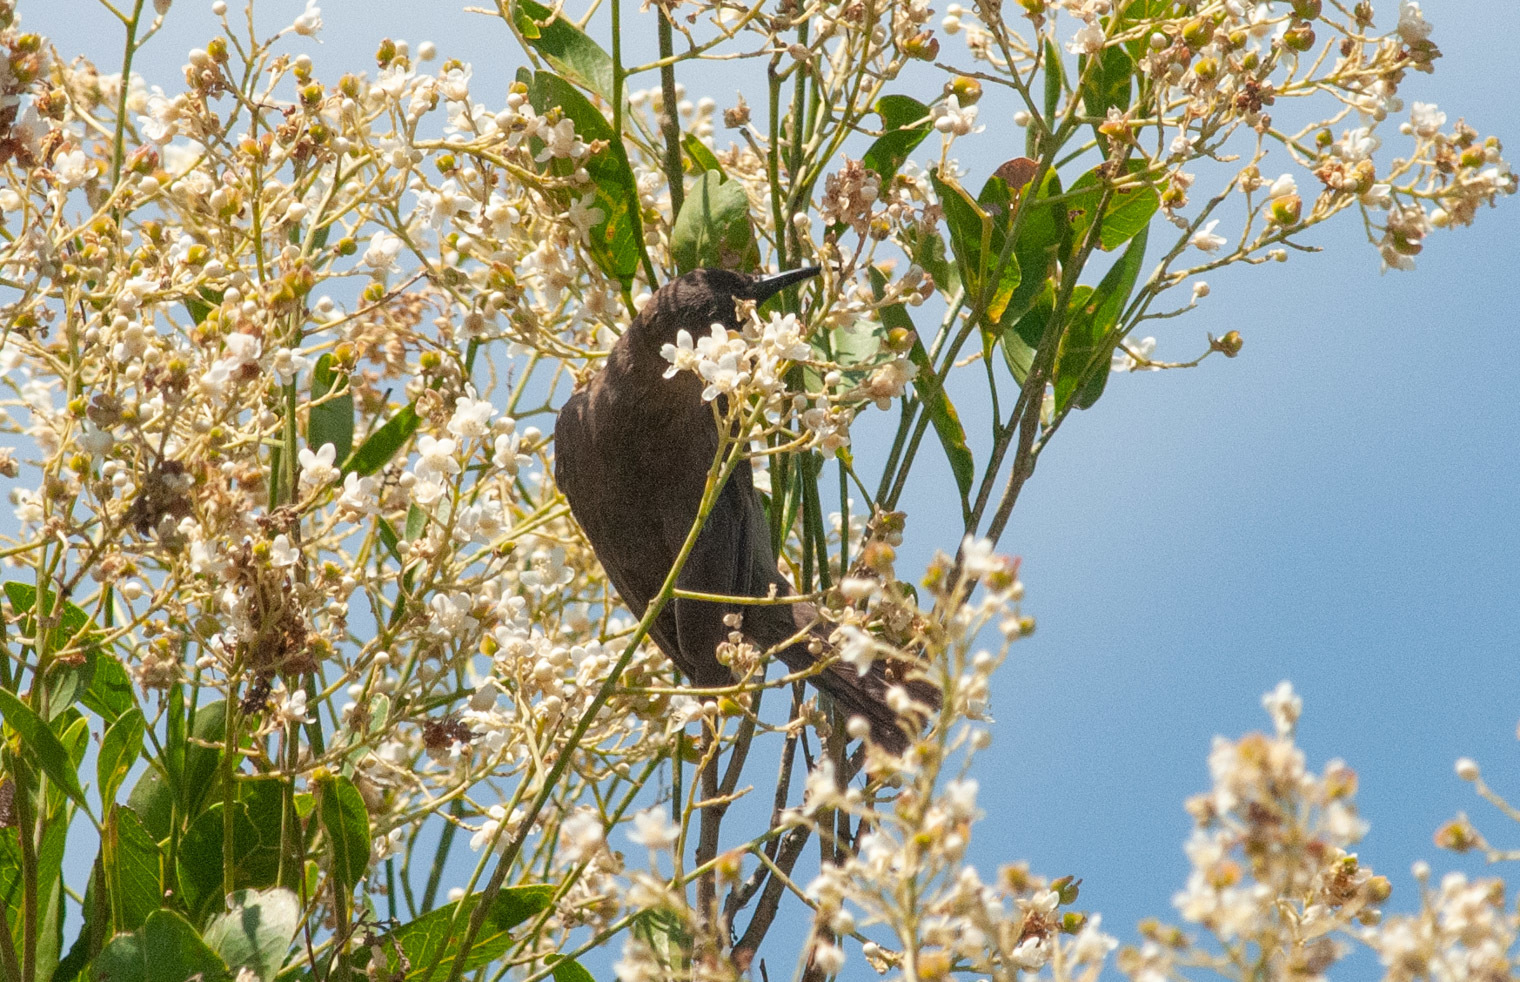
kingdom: Animalia
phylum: Chordata
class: Aves
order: Passeriformes
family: Meliphagidae
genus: Myzomela
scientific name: Myzomela obscura
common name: Dusky myzomela
